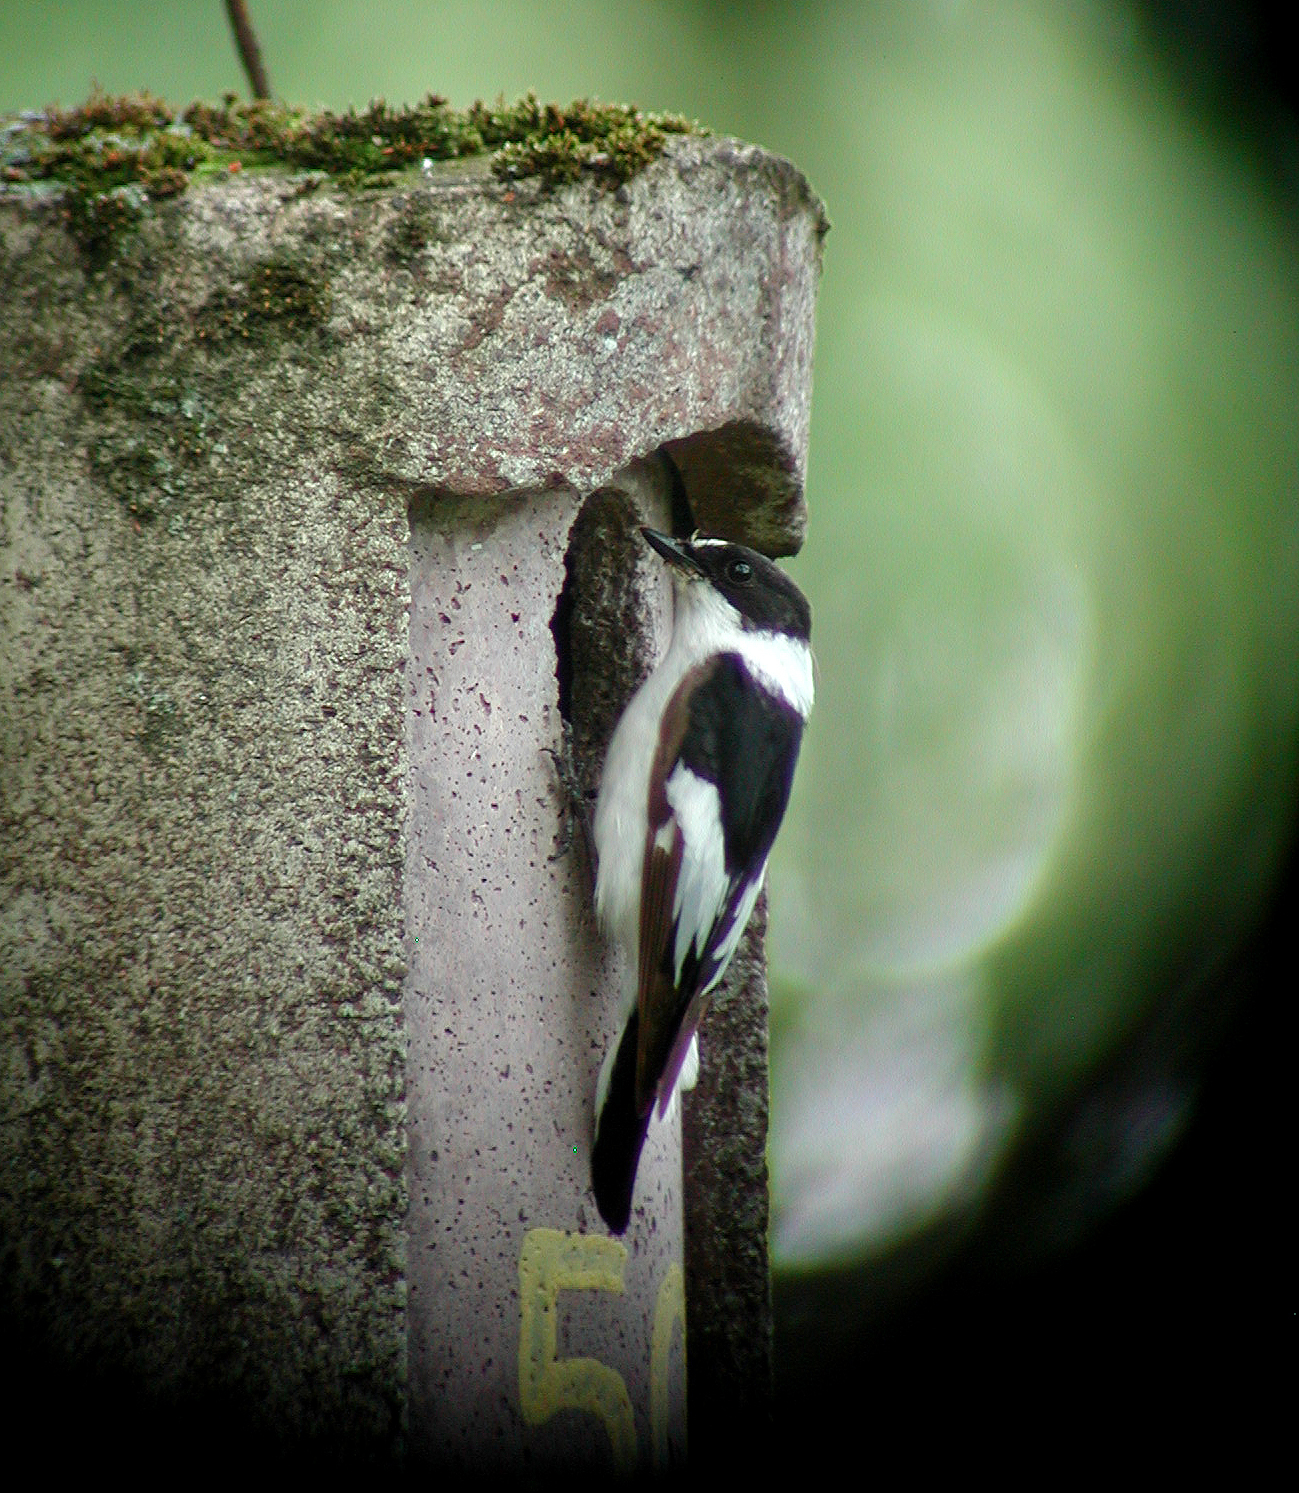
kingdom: Animalia
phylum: Chordata
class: Aves
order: Passeriformes
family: Muscicapidae
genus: Ficedula
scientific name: Ficedula albicollis
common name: Collared flycatcher
